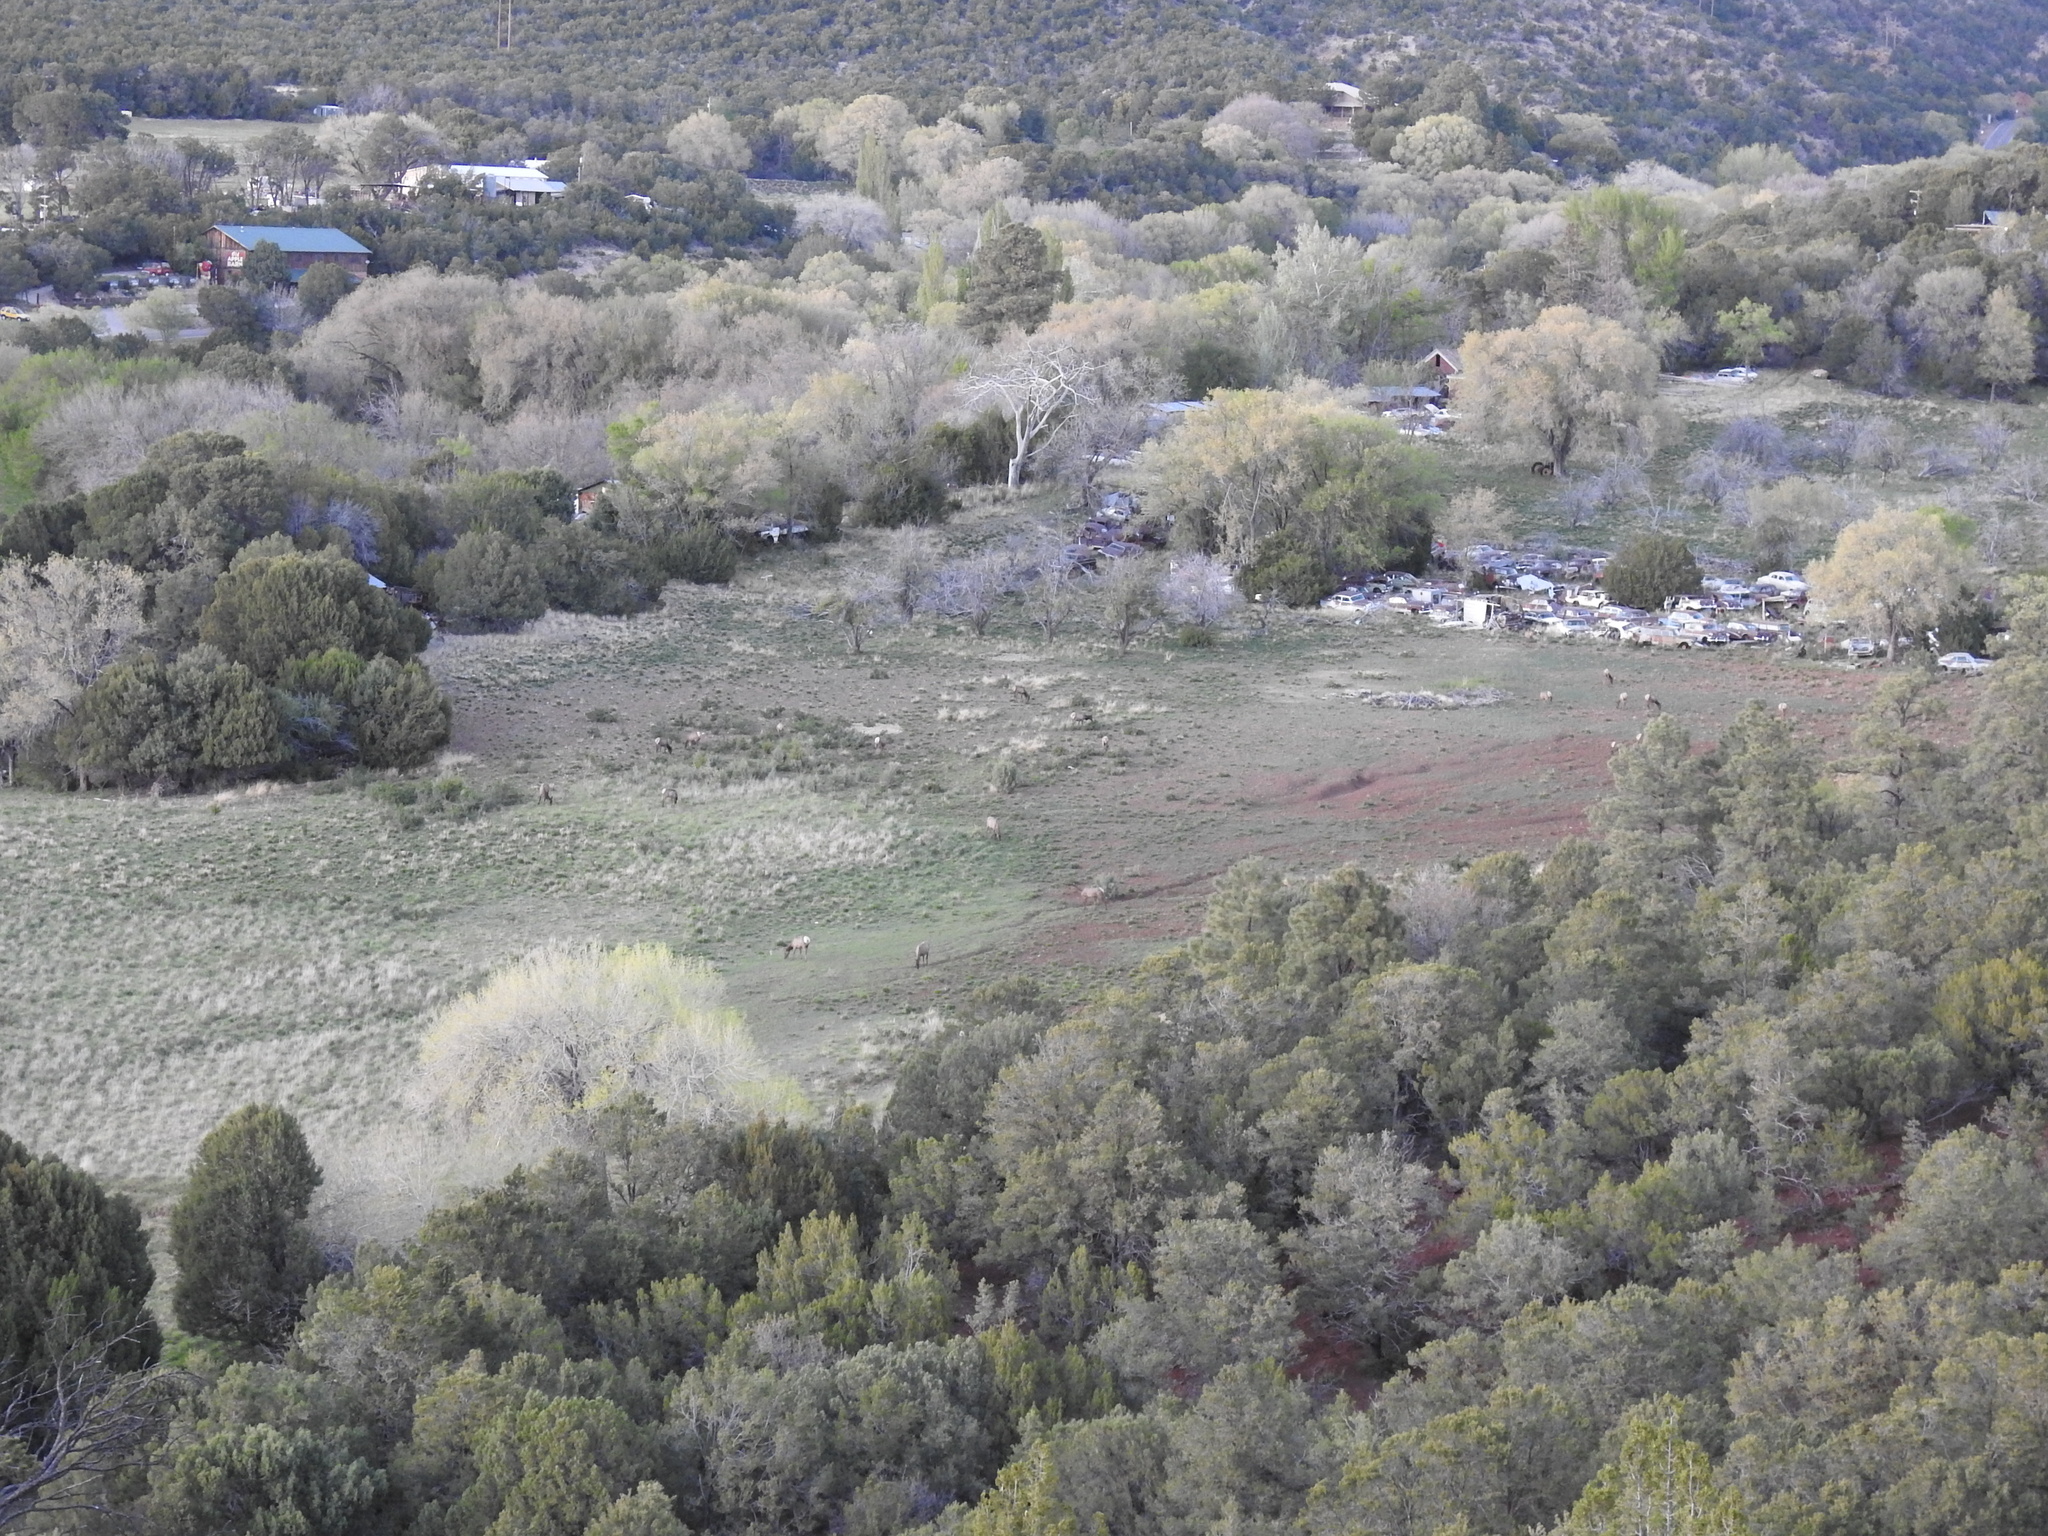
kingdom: Animalia
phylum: Chordata
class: Mammalia
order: Artiodactyla
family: Cervidae
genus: Cervus
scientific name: Cervus elaphus
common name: Red deer
